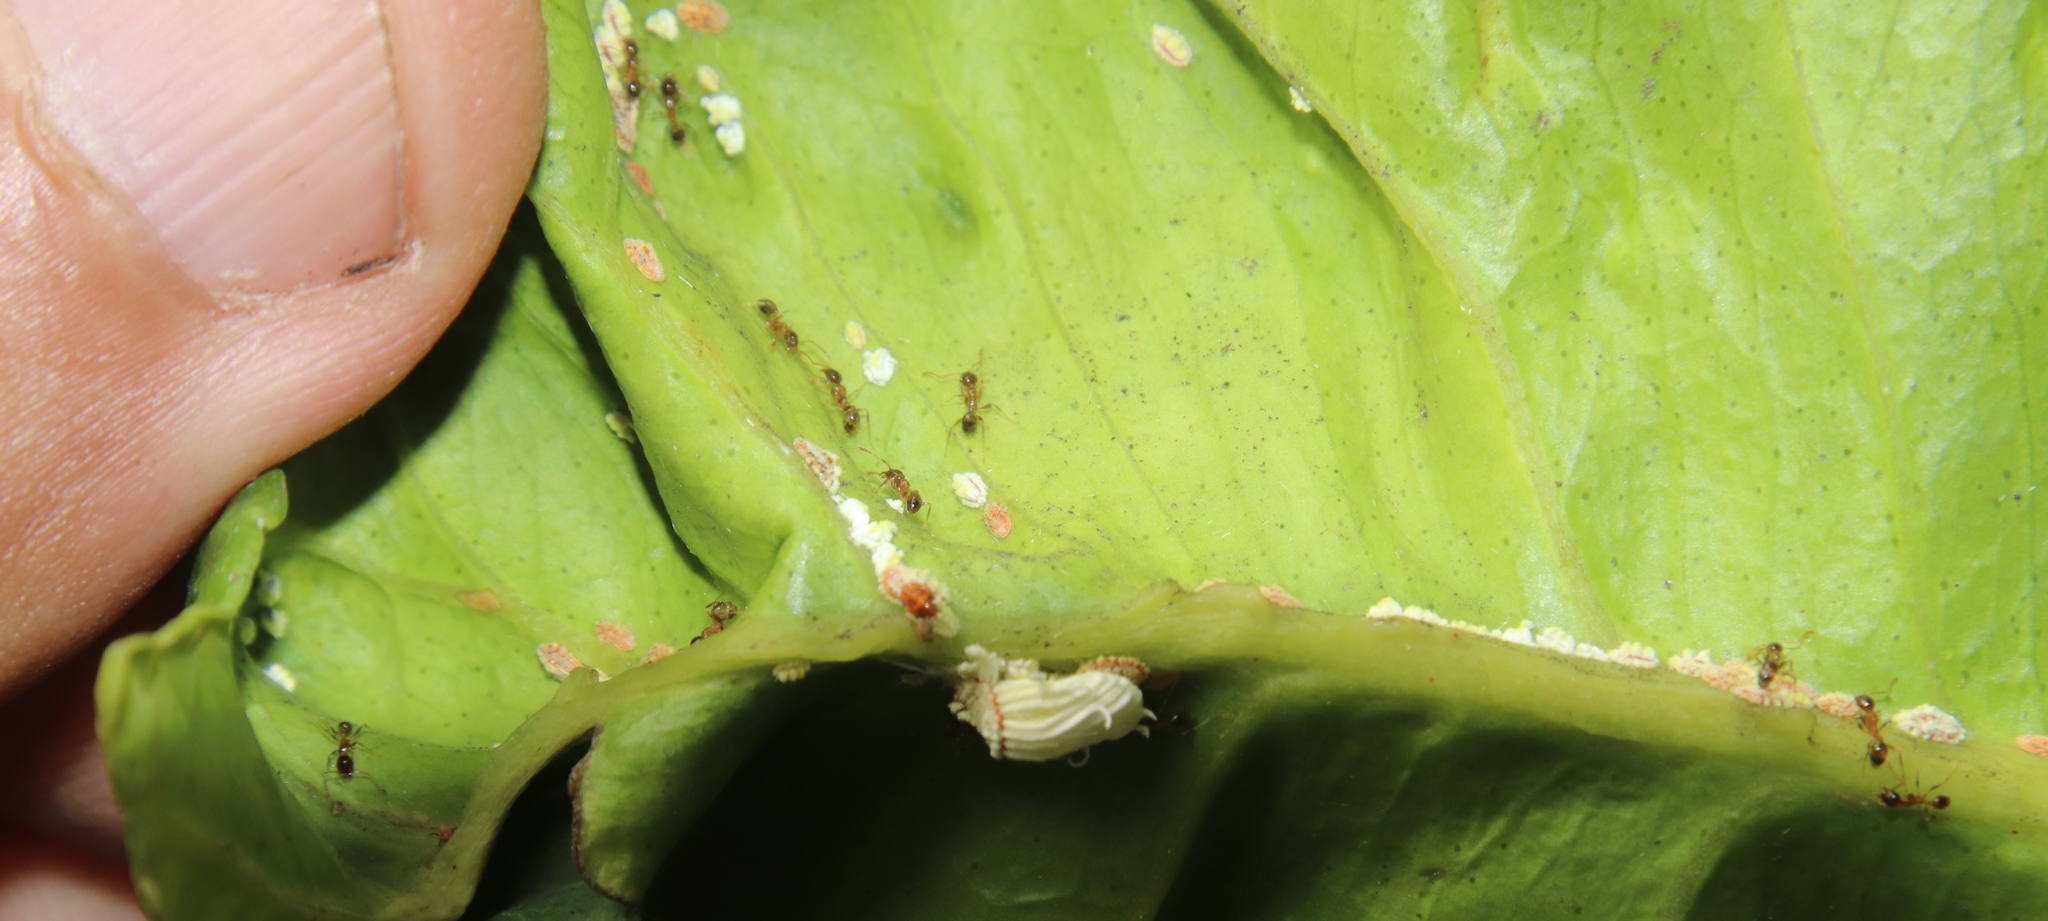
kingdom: Animalia
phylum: Arthropoda
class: Insecta
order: Hemiptera
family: Margarodidae
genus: Icerya
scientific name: Icerya purchasi
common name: Cottony cushion scale
